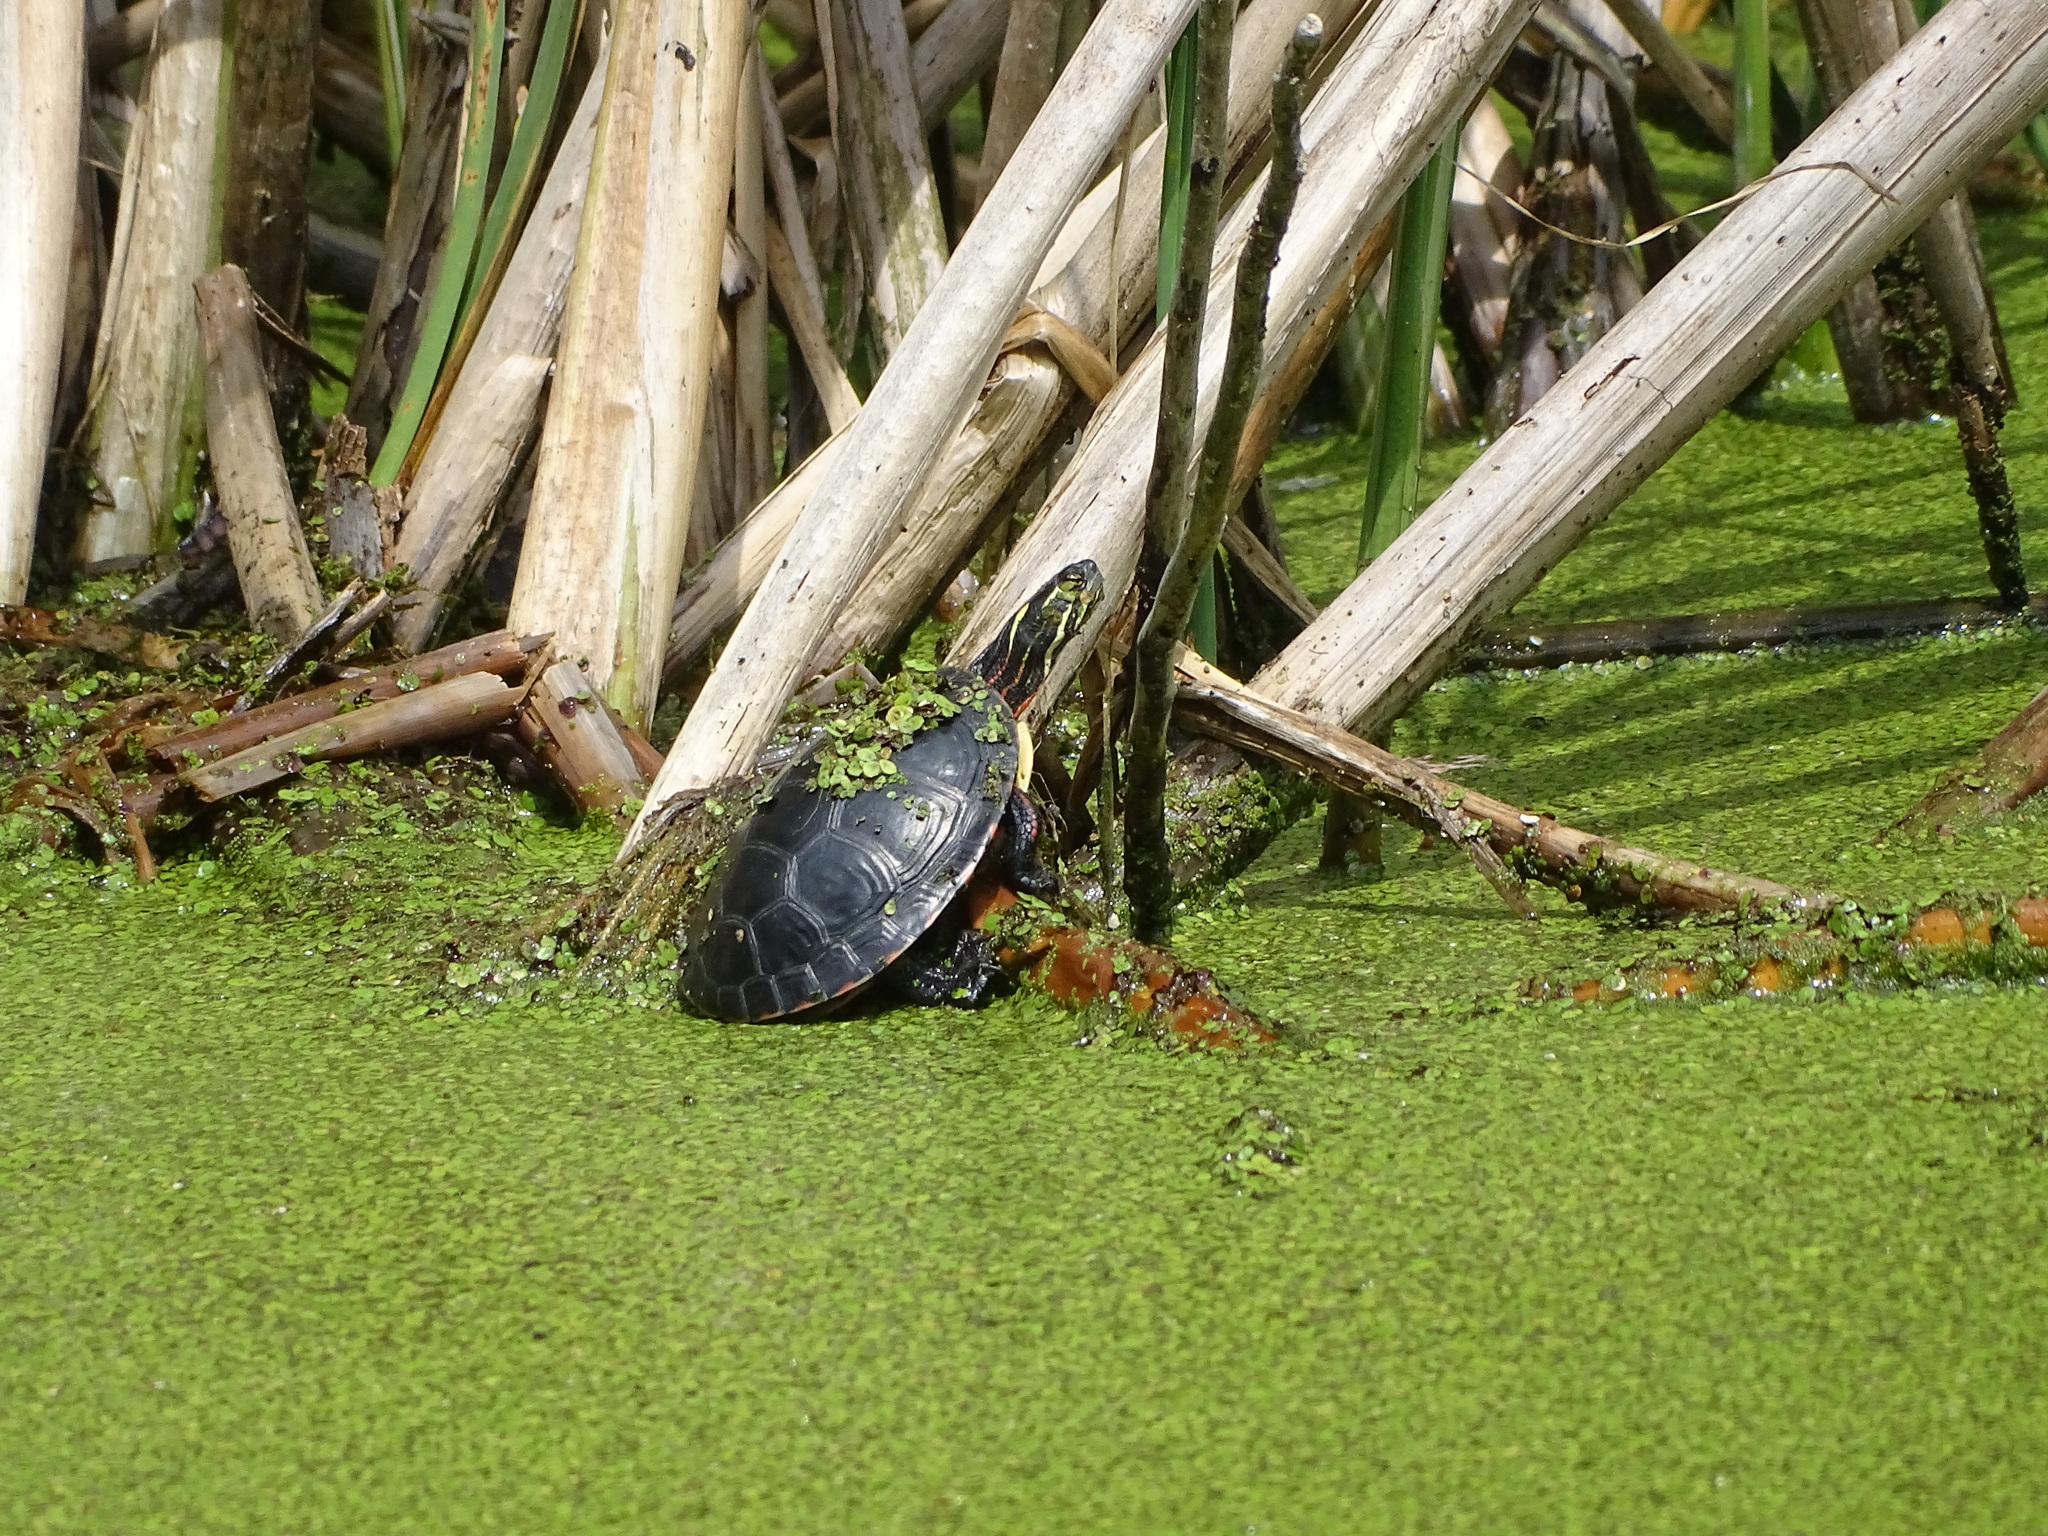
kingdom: Animalia
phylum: Chordata
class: Testudines
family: Emydidae
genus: Chrysemys
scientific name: Chrysemys picta
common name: Painted turtle
